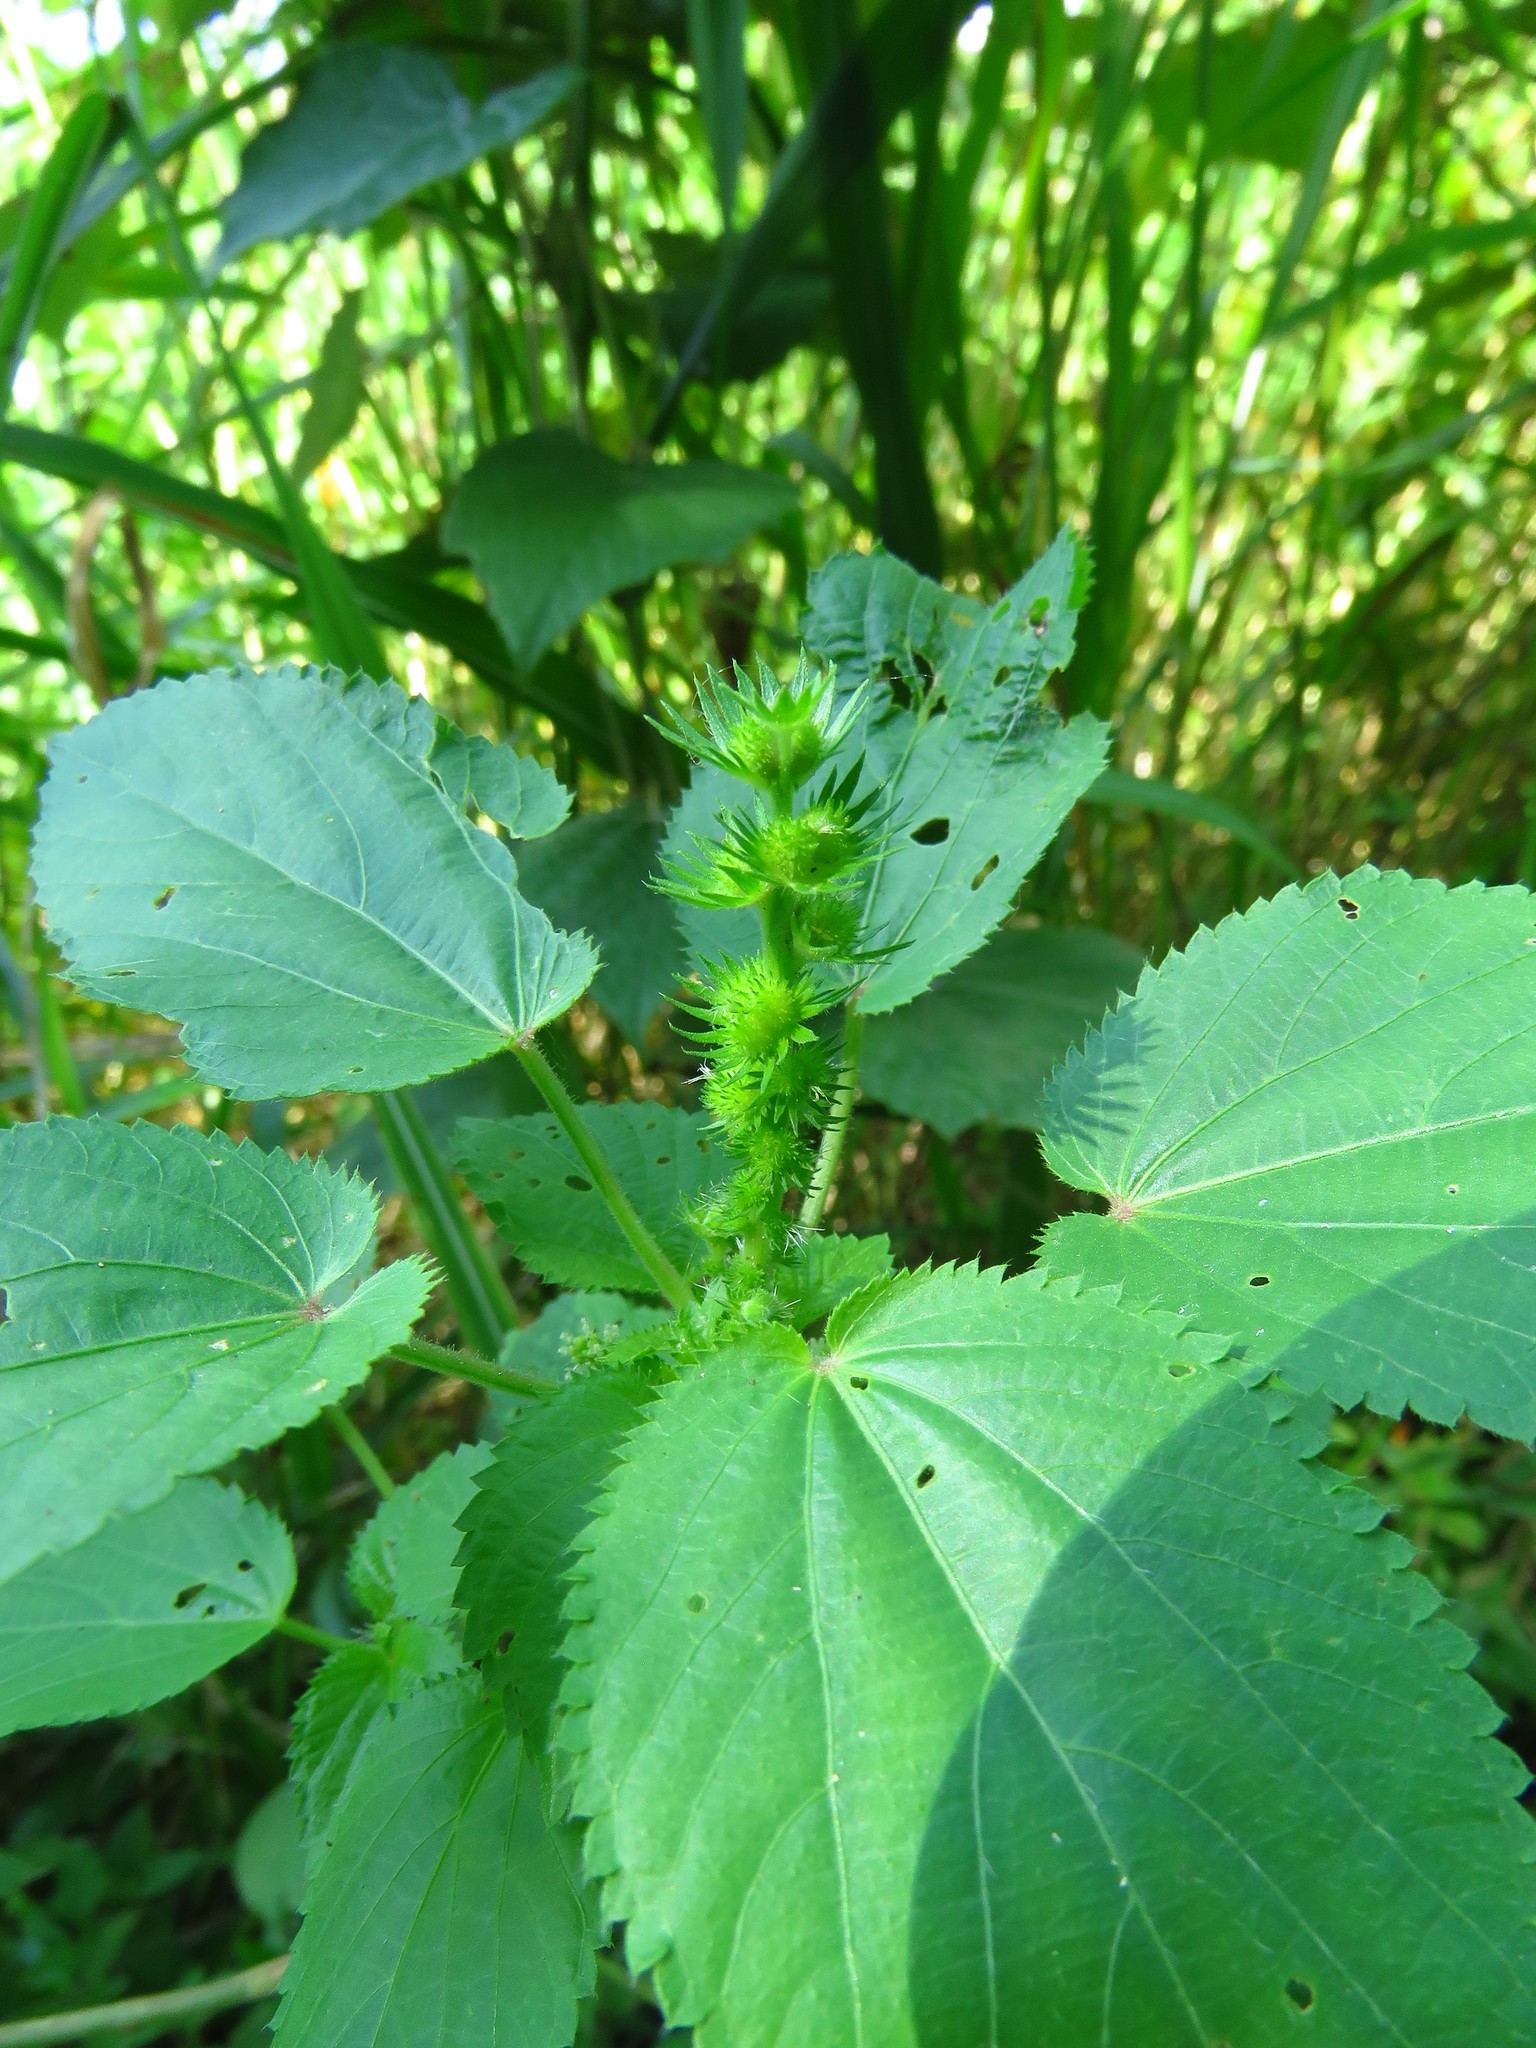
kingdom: Plantae
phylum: Tracheophyta
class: Magnoliopsida
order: Malpighiales
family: Euphorbiaceae
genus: Acalypha
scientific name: Acalypha ostryifolia
